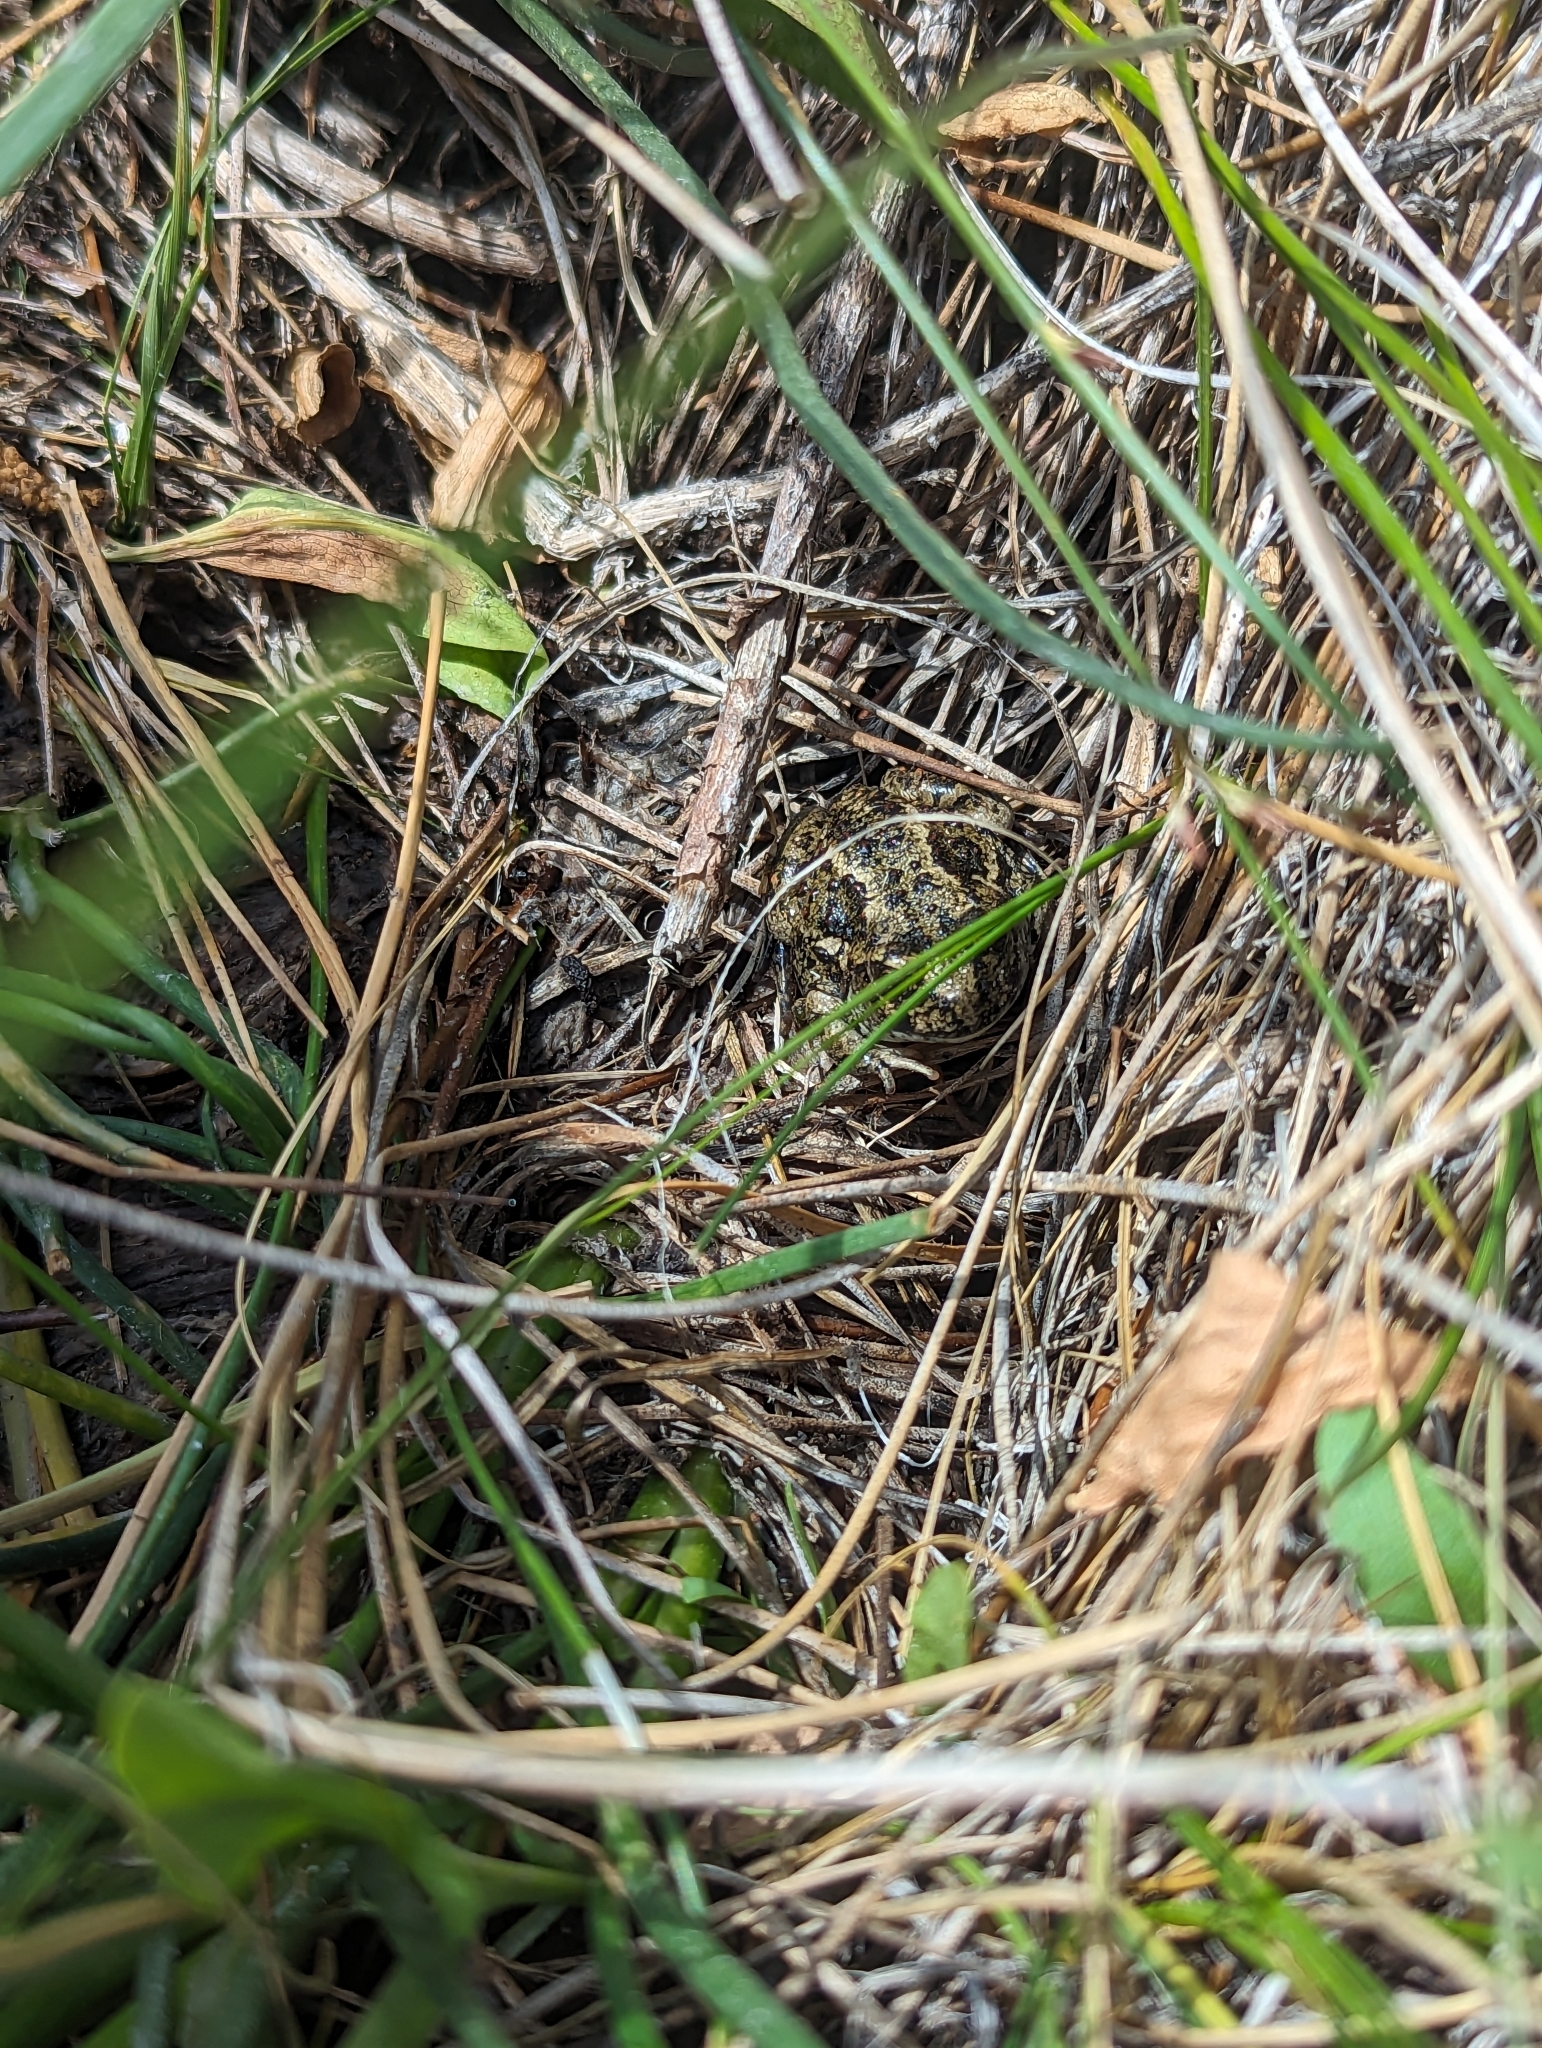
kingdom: Animalia
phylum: Chordata
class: Amphibia
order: Anura
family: Scaphiopodidae
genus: Spea
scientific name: Spea intermontana
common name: Great basin spadefoot
